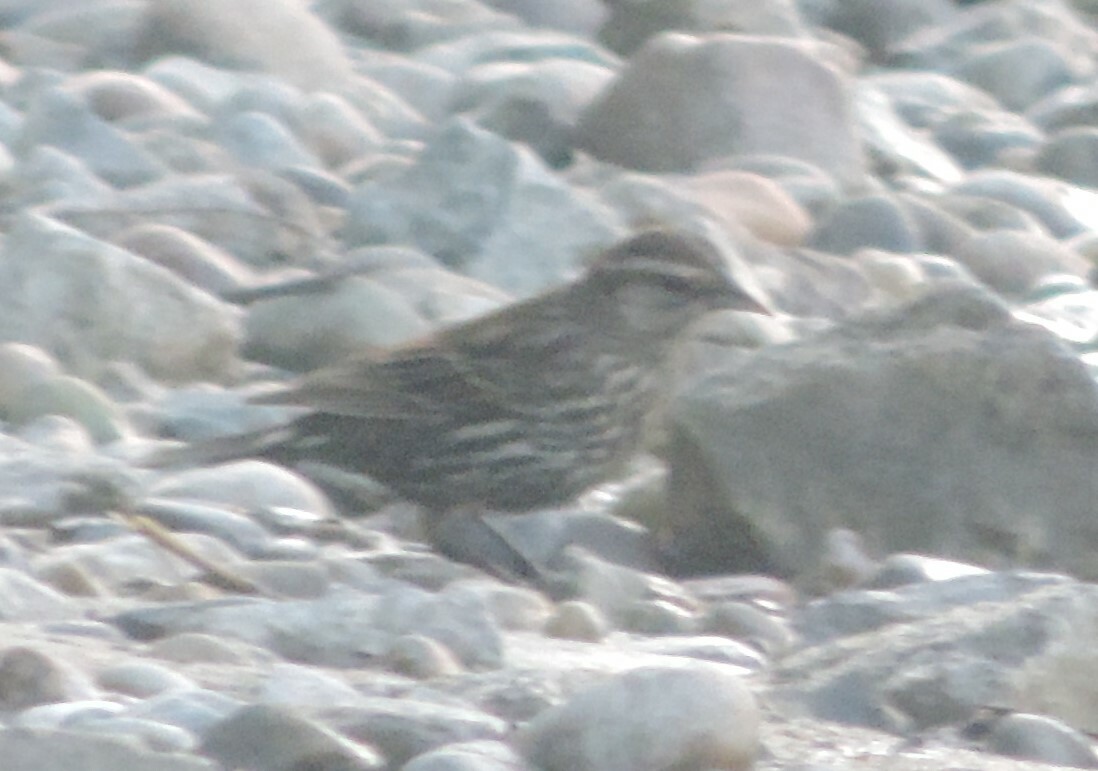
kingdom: Animalia
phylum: Chordata
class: Aves
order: Passeriformes
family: Icteridae
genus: Agelaius
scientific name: Agelaius phoeniceus
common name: Red-winged blackbird
